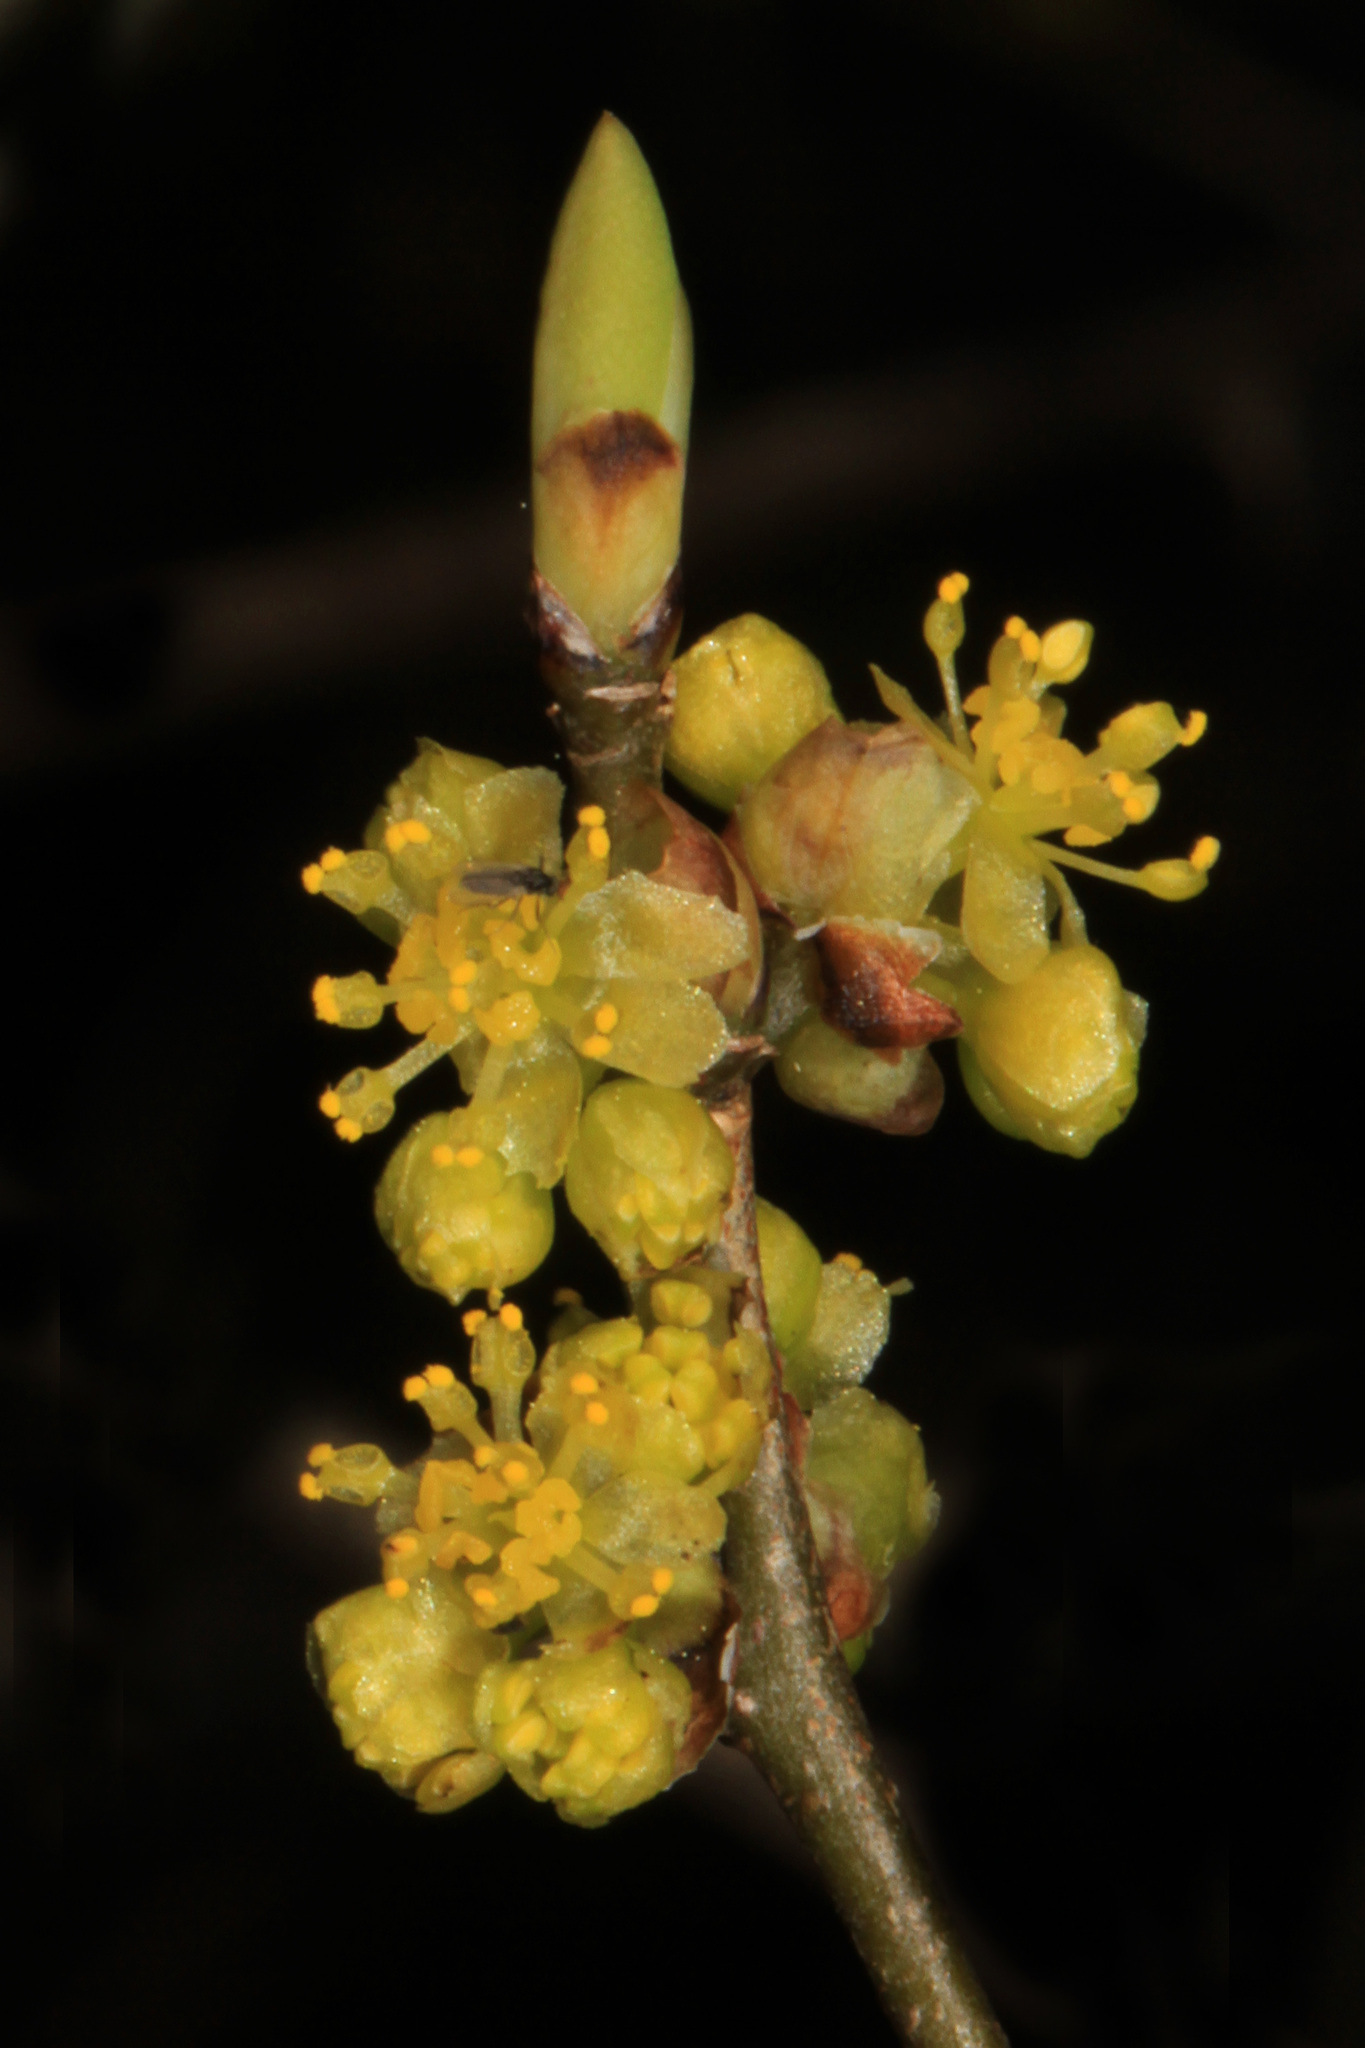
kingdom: Plantae
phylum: Tracheophyta
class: Magnoliopsida
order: Laurales
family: Lauraceae
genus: Lindera
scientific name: Lindera benzoin
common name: Spicebush
